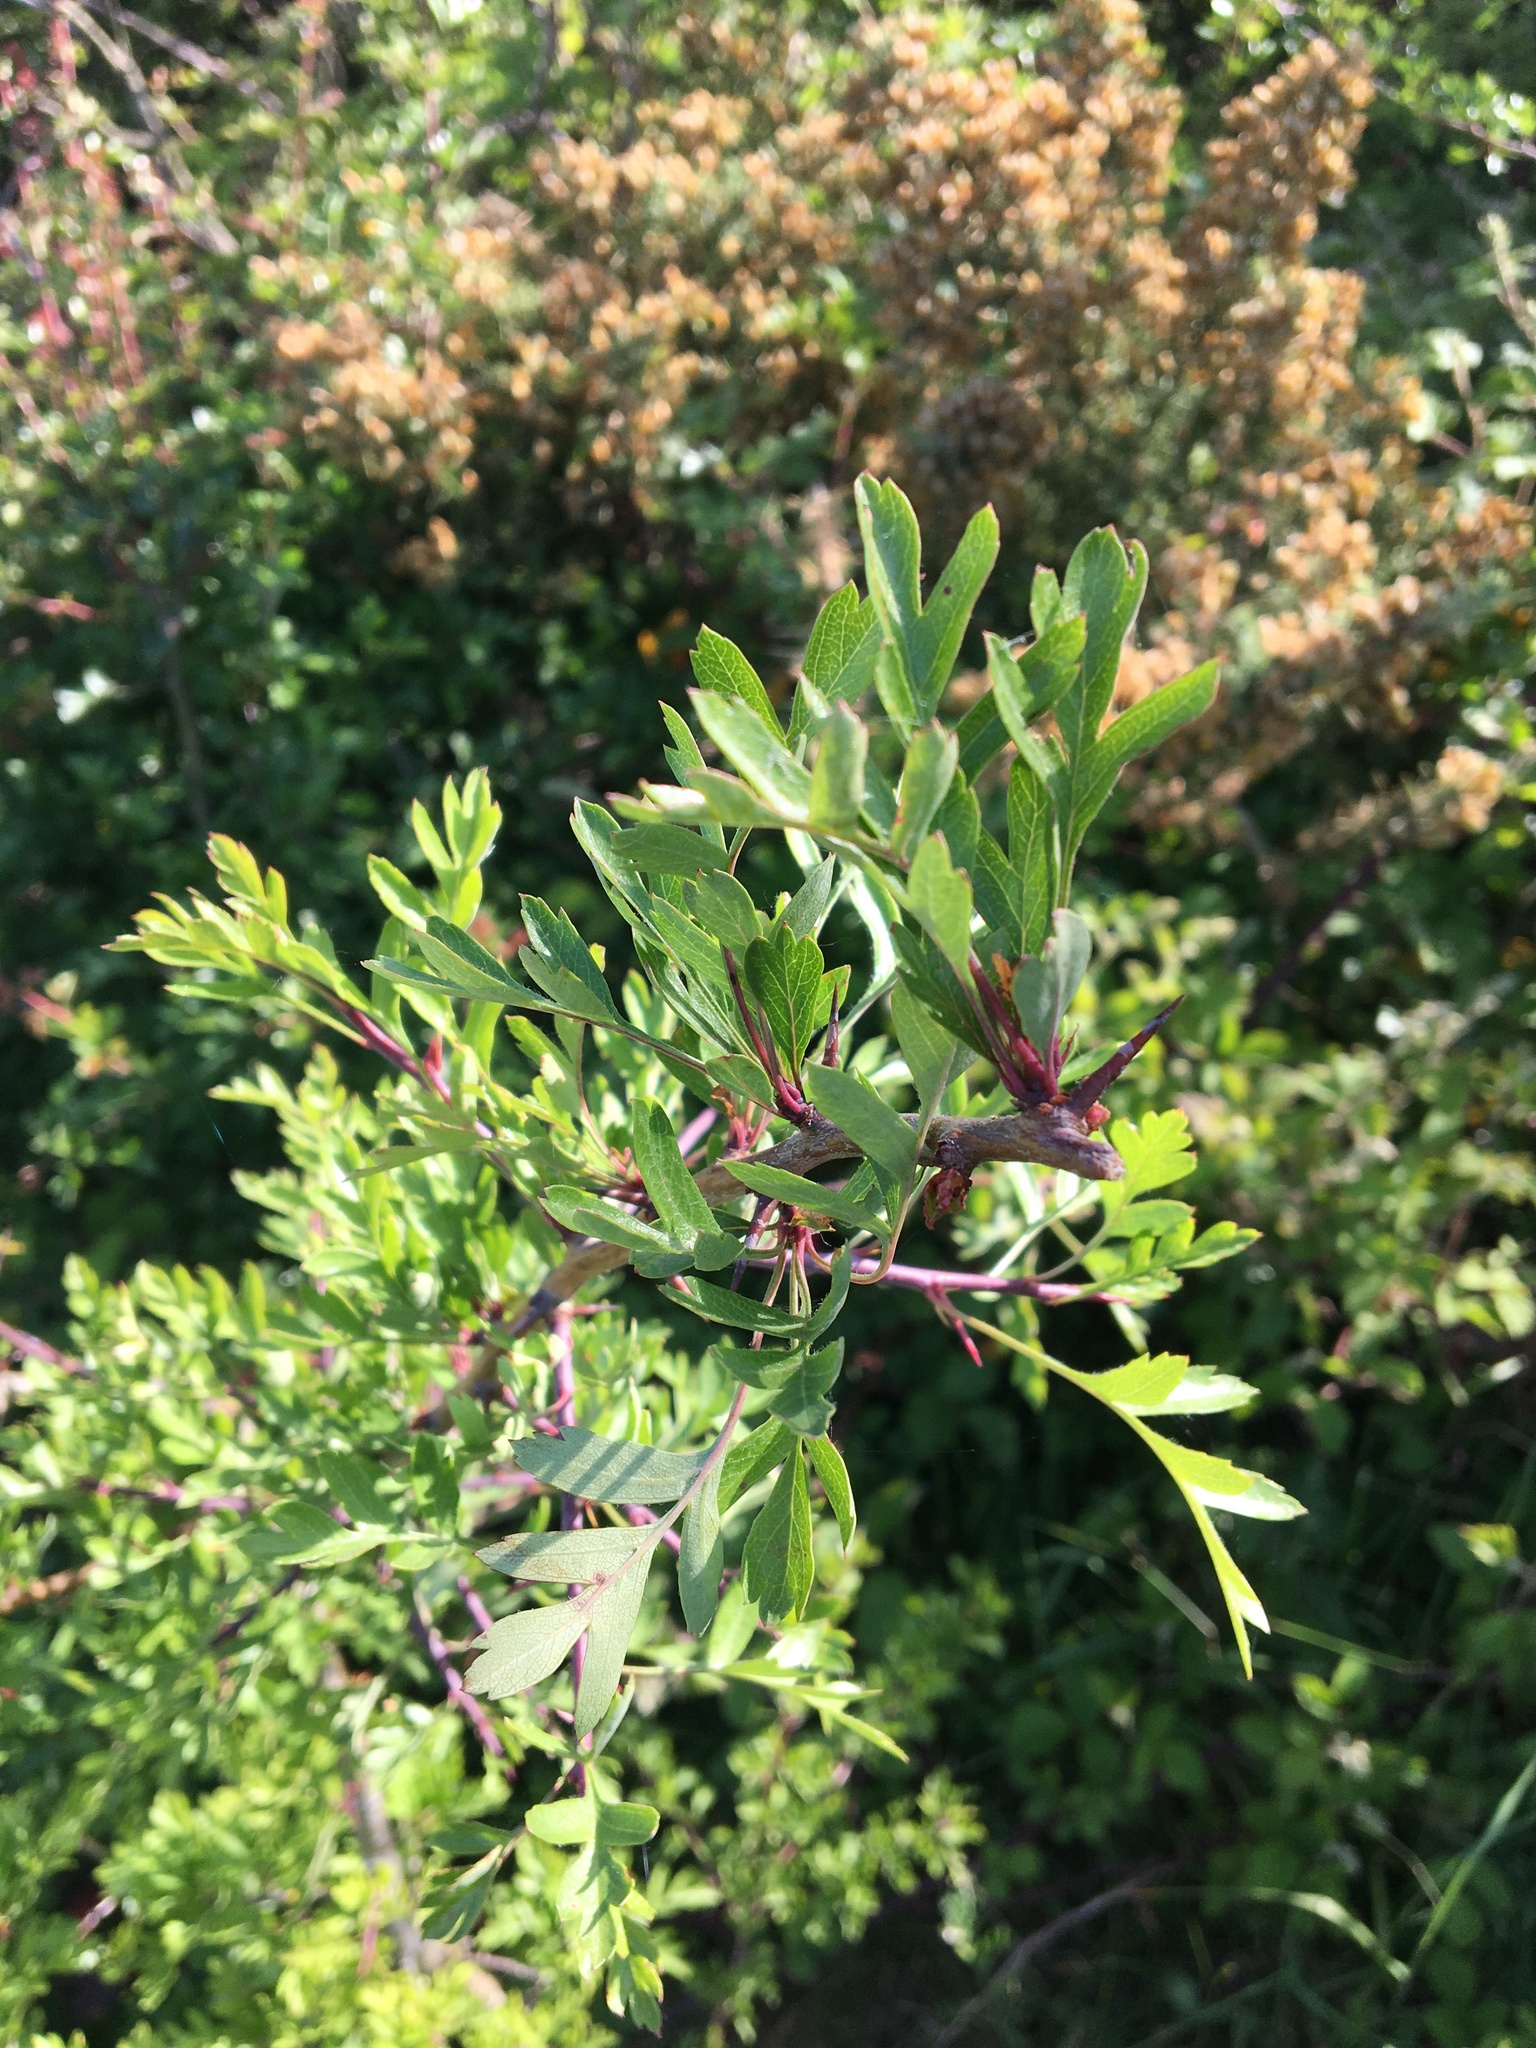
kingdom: Plantae
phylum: Tracheophyta
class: Magnoliopsida
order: Rosales
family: Rosaceae
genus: Crataegus
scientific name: Crataegus monogyna
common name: Hawthorn
